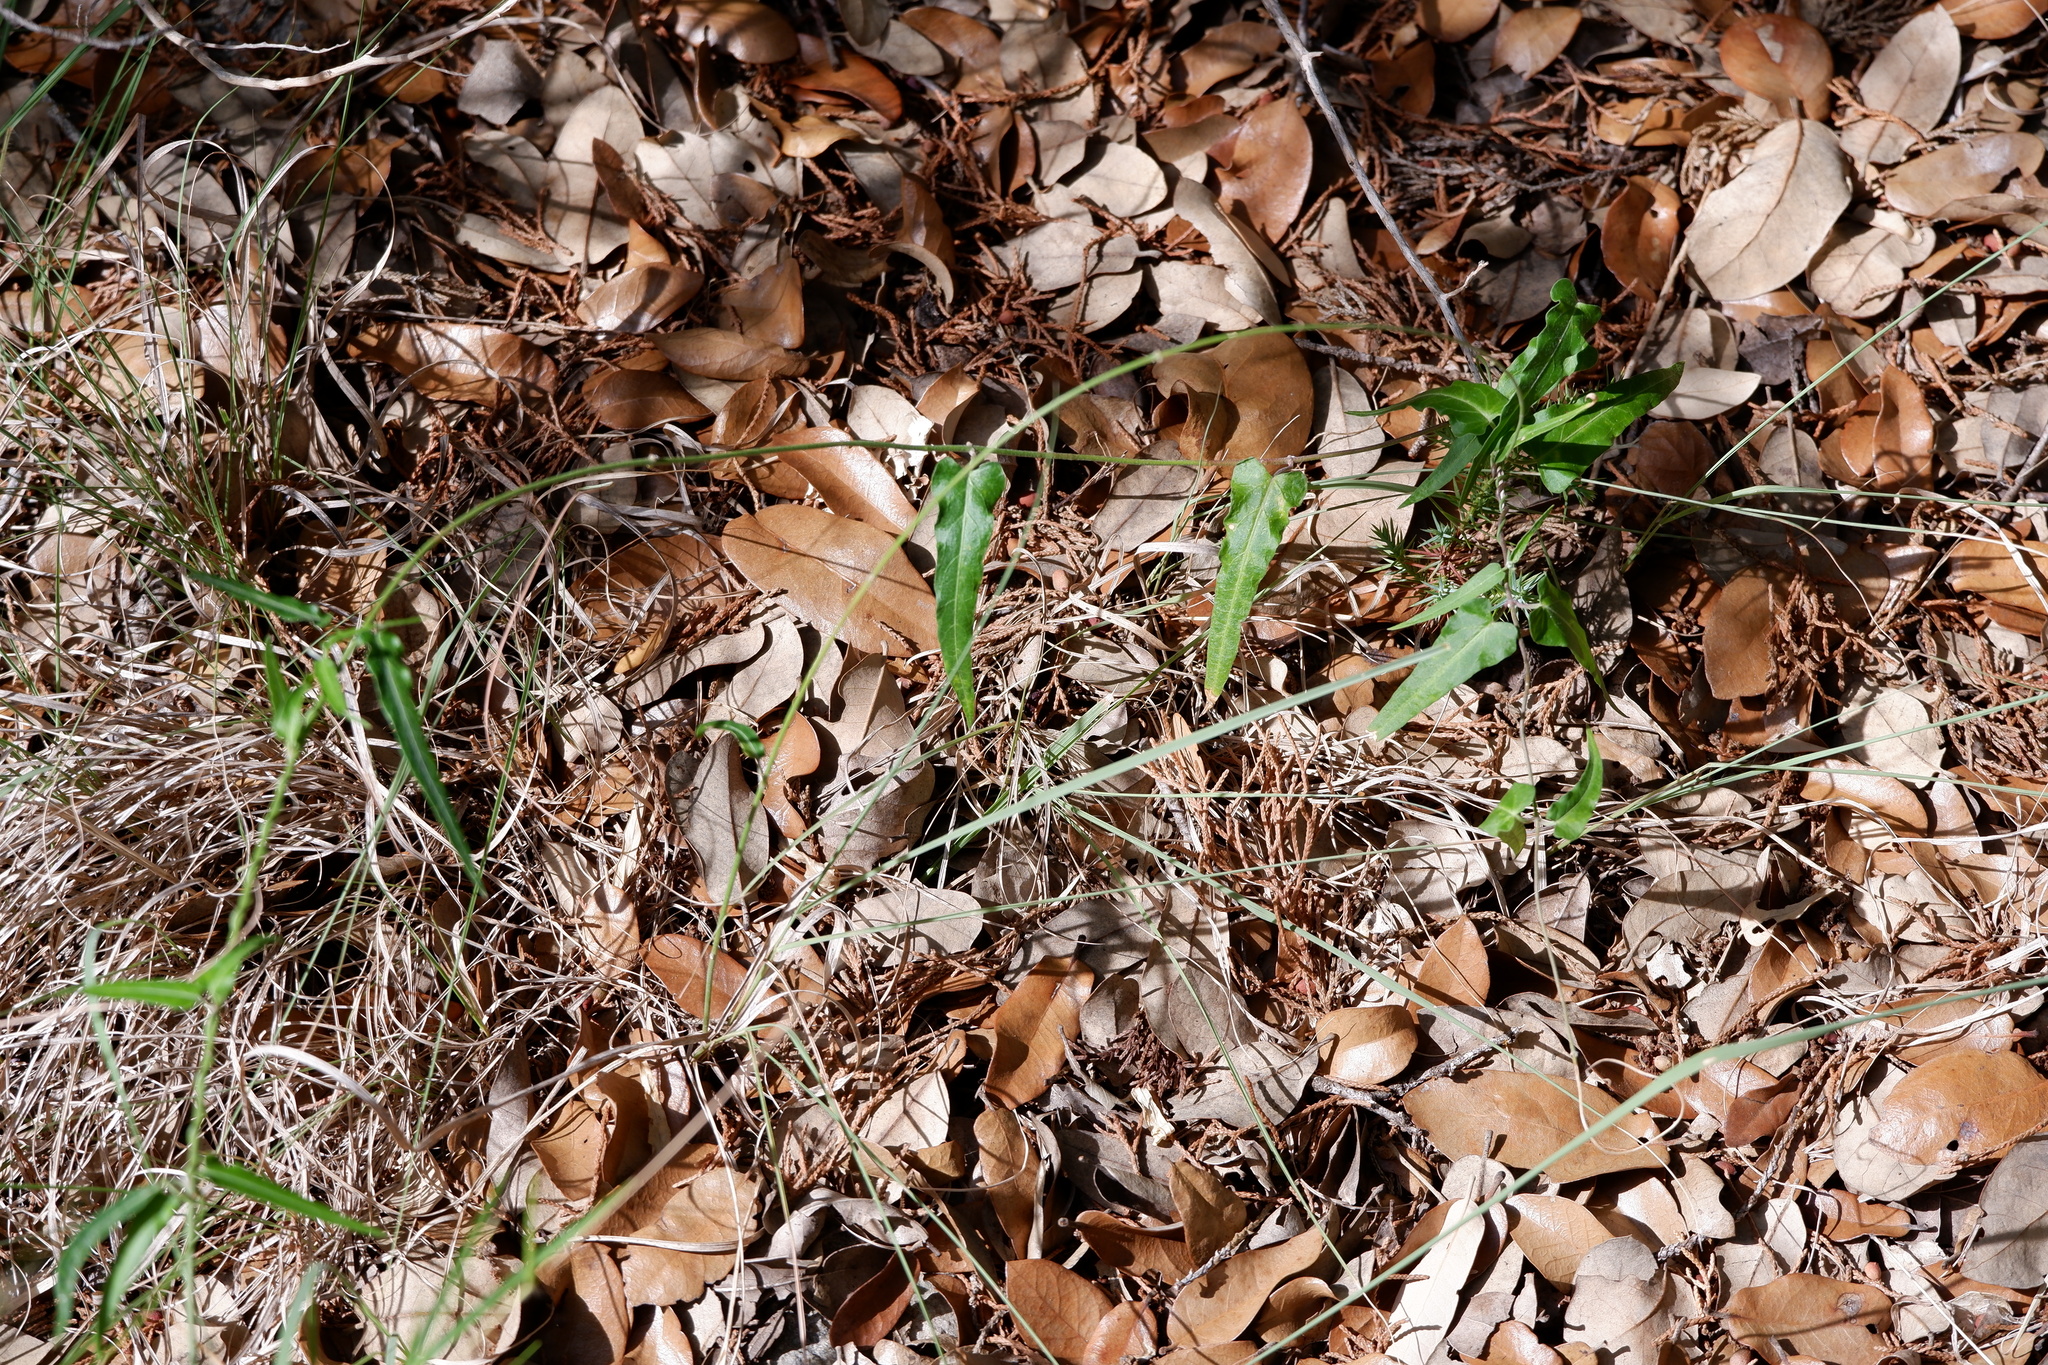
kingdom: Plantae
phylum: Tracheophyta
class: Magnoliopsida
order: Gentianales
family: Apocynaceae
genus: Funastrum
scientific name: Funastrum crispum
